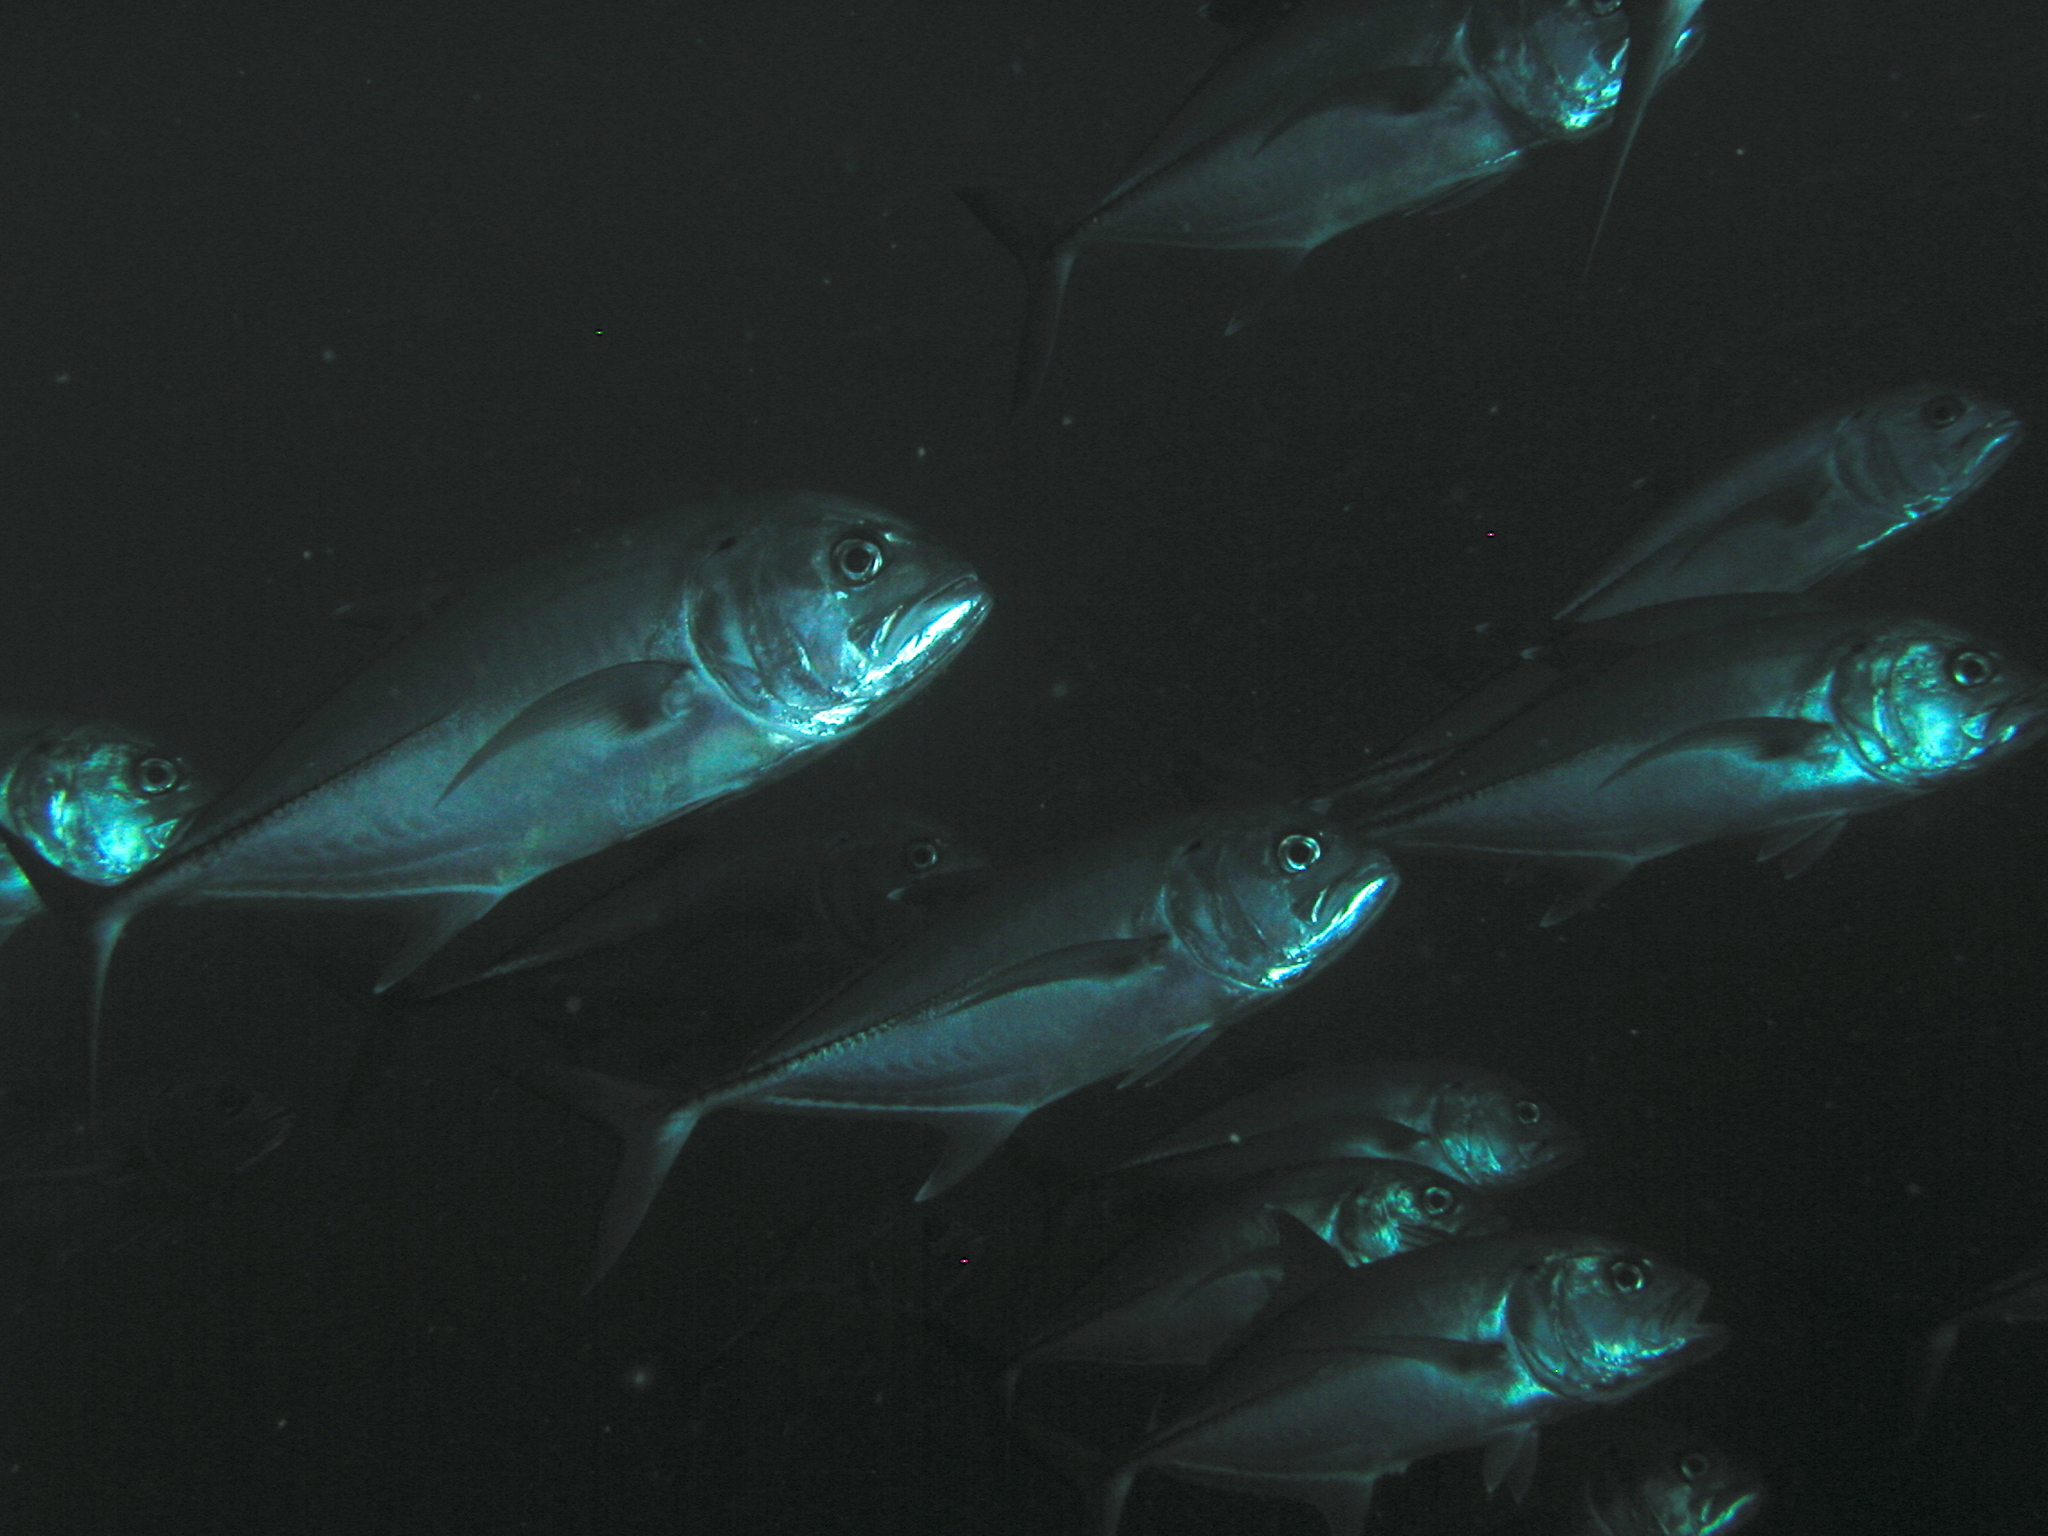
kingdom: Animalia
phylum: Chordata
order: Perciformes
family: Carangidae
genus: Caranx
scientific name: Caranx sexfasciatus
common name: Bigeye trevally
